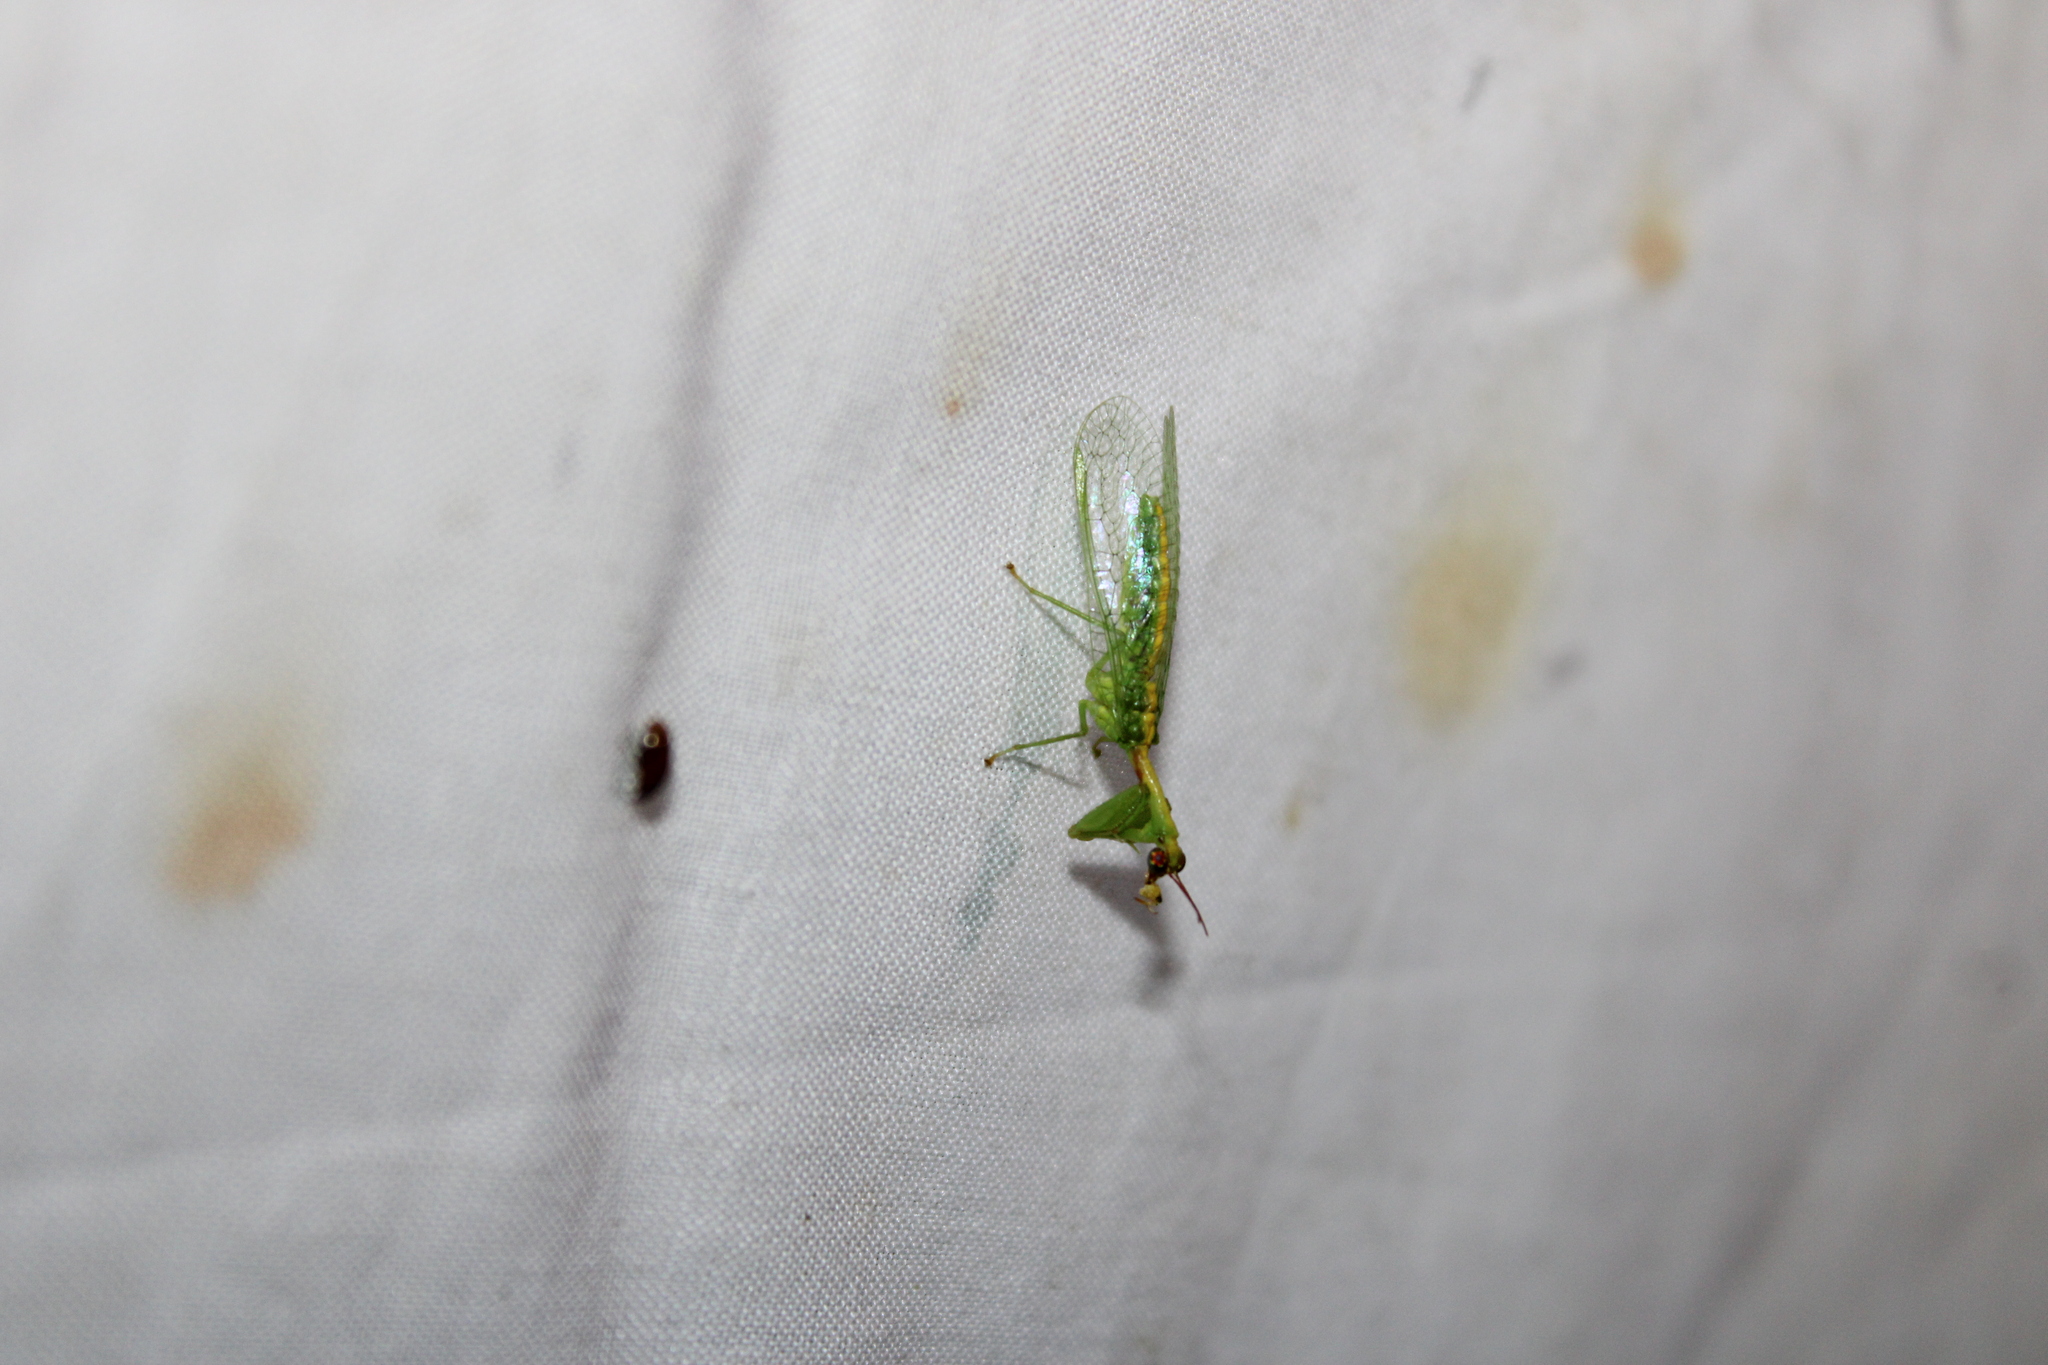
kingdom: Animalia
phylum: Arthropoda
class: Insecta
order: Neuroptera
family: Mantispidae
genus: Zeugomantispa
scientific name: Zeugomantispa minuta
